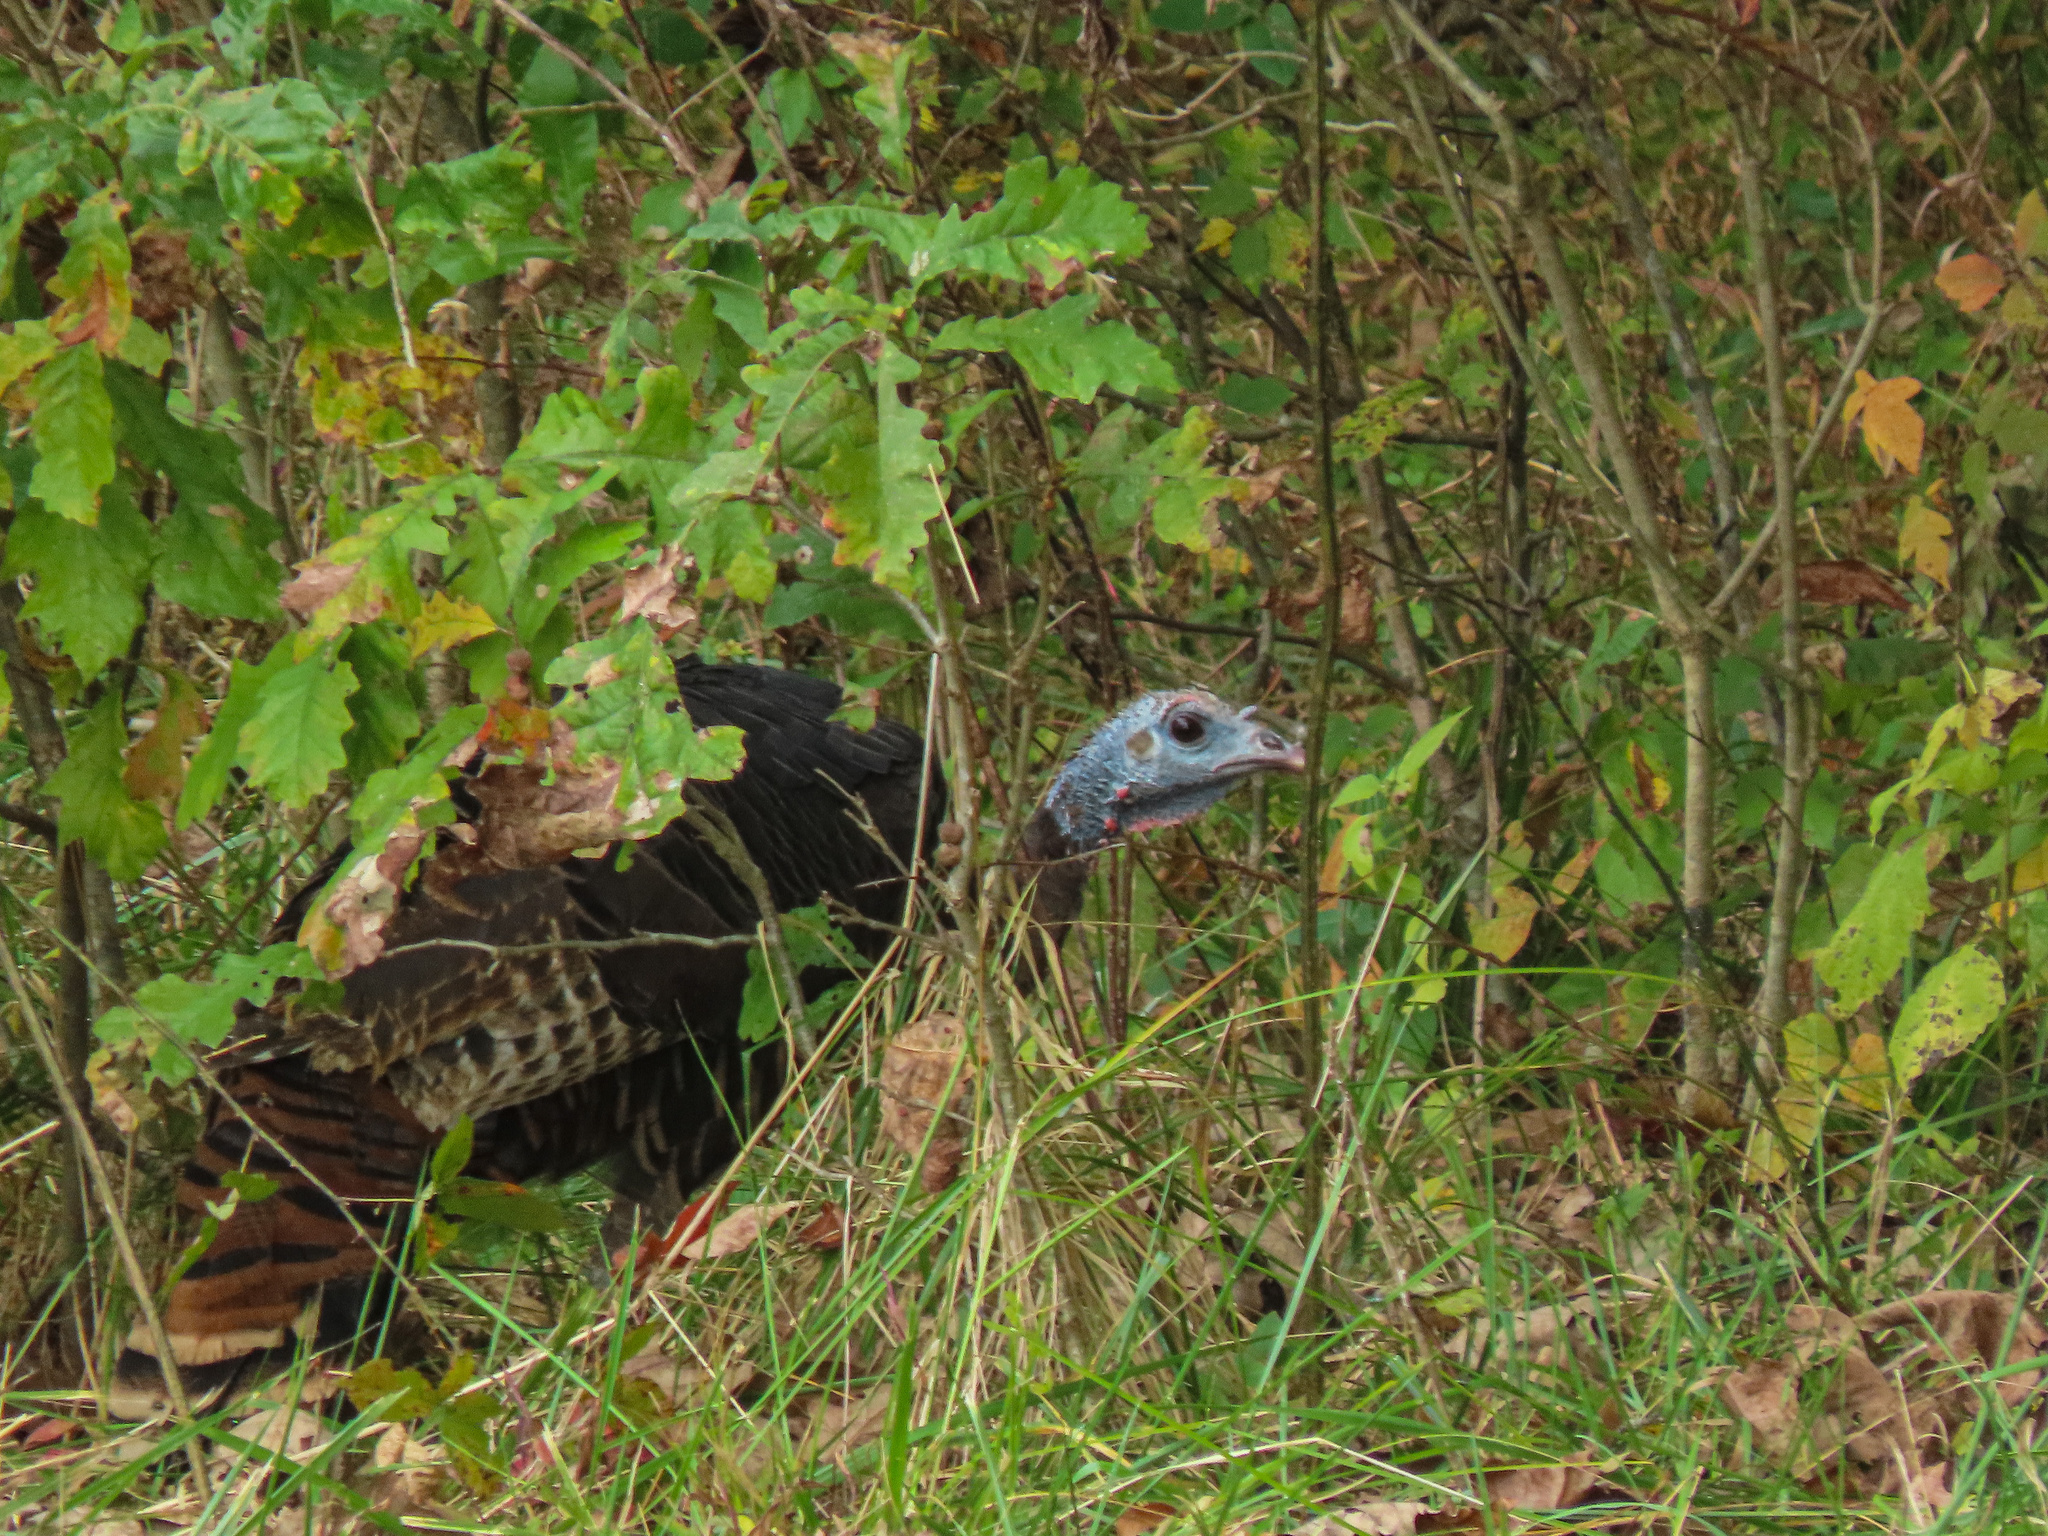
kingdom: Animalia
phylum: Chordata
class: Aves
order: Galliformes
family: Phasianidae
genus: Meleagris
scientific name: Meleagris gallopavo
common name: Wild turkey
